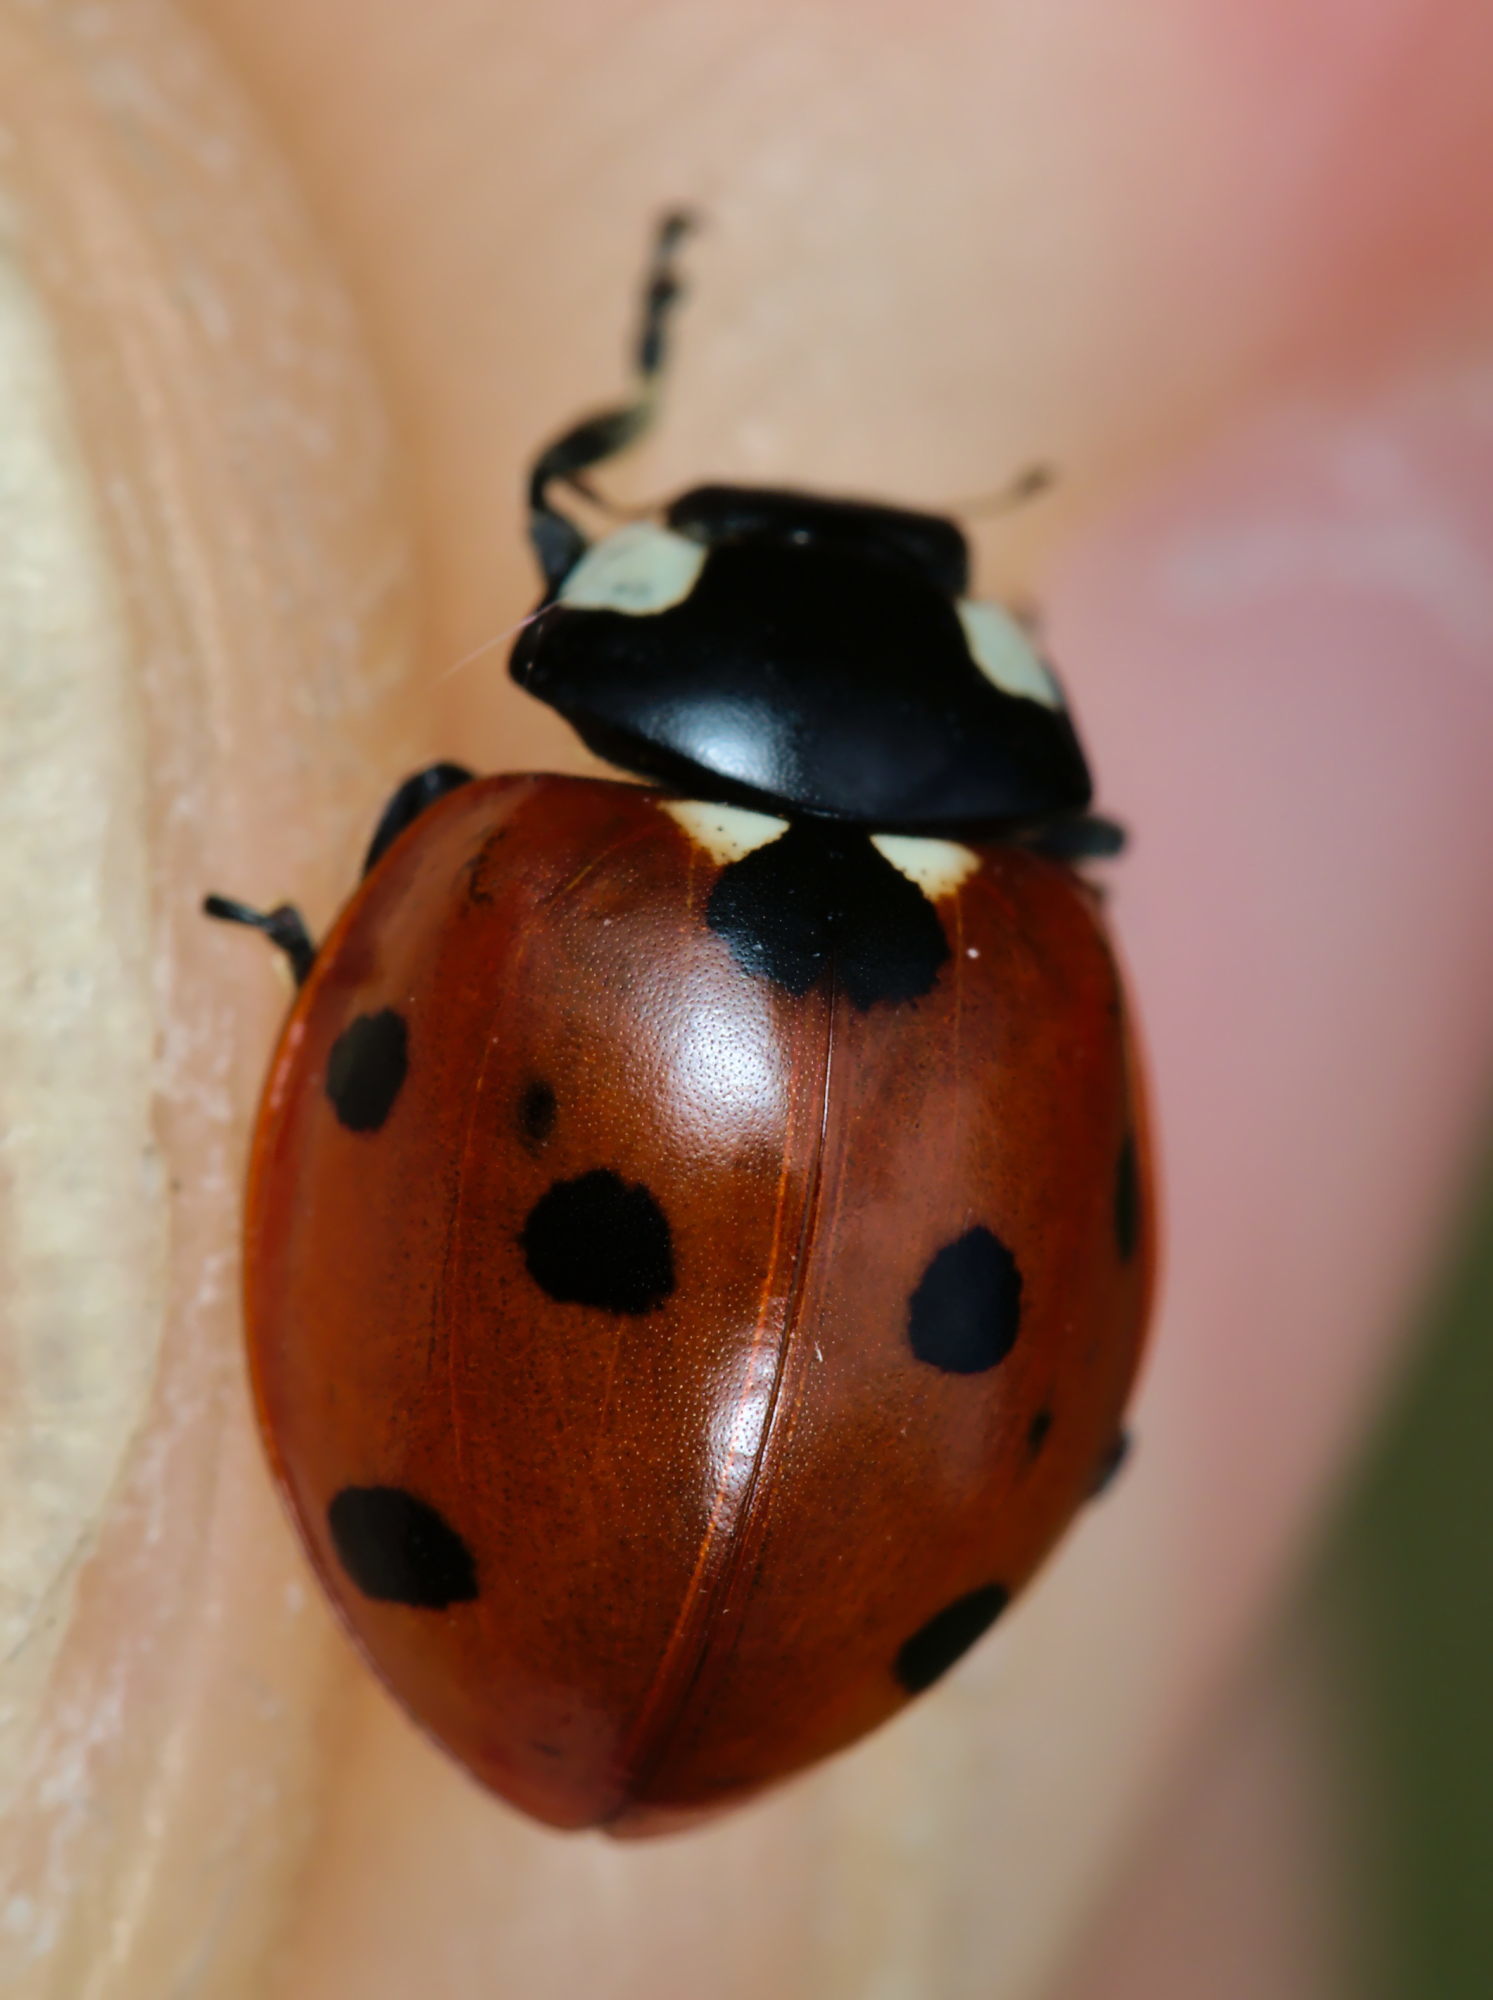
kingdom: Animalia
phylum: Arthropoda
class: Insecta
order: Coleoptera
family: Coccinellidae
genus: Coccinella
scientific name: Coccinella septempunctata
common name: Sevenspotted lady beetle
